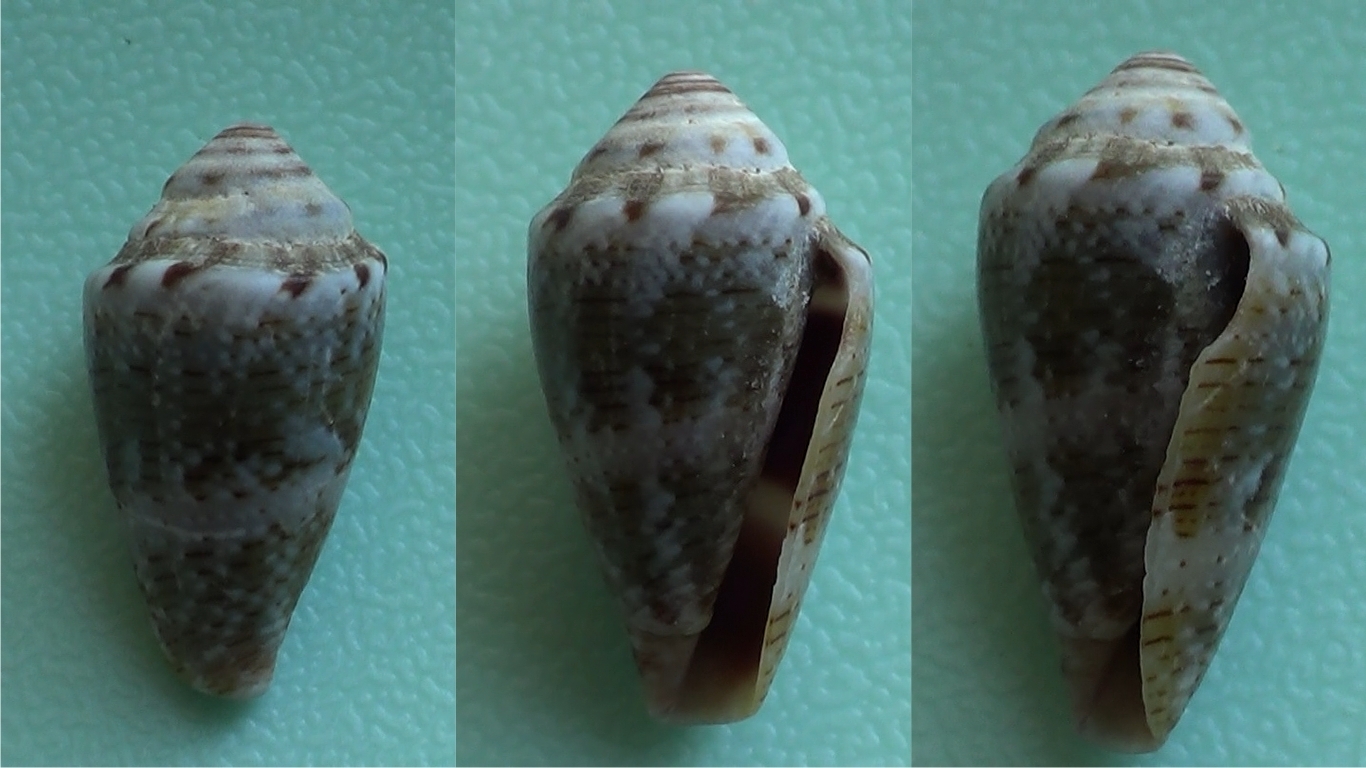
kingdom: Animalia
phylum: Mollusca
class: Gastropoda
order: Neogastropoda
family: Conidae
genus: Conus
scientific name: Conus ventricosus
